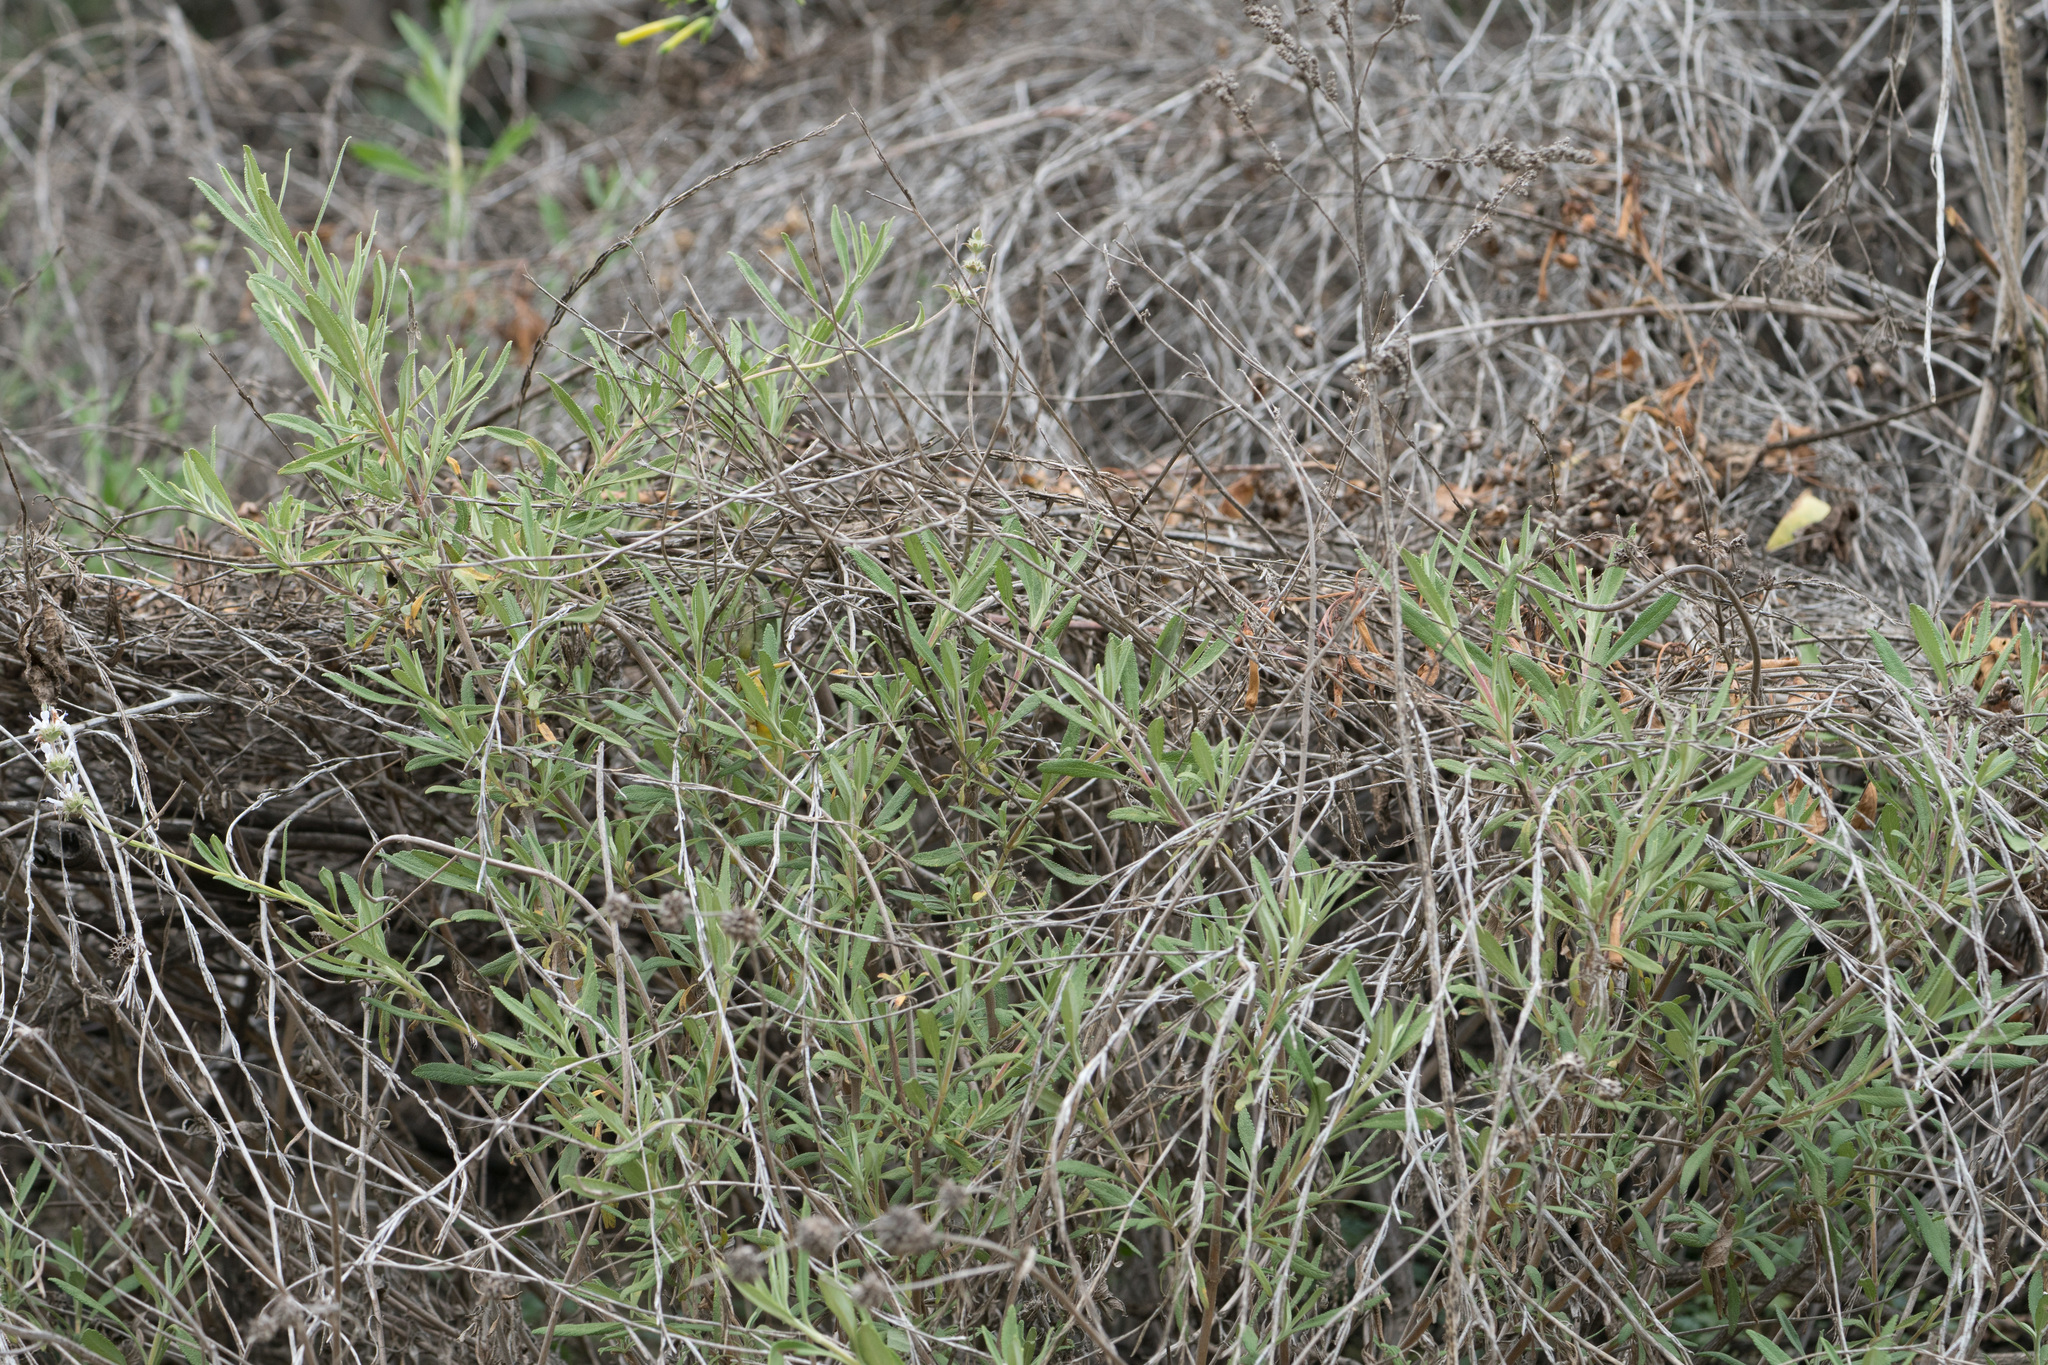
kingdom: Plantae
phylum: Tracheophyta
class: Magnoliopsida
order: Lamiales
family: Lamiaceae
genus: Salvia
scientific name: Salvia mellifera
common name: Black sage
